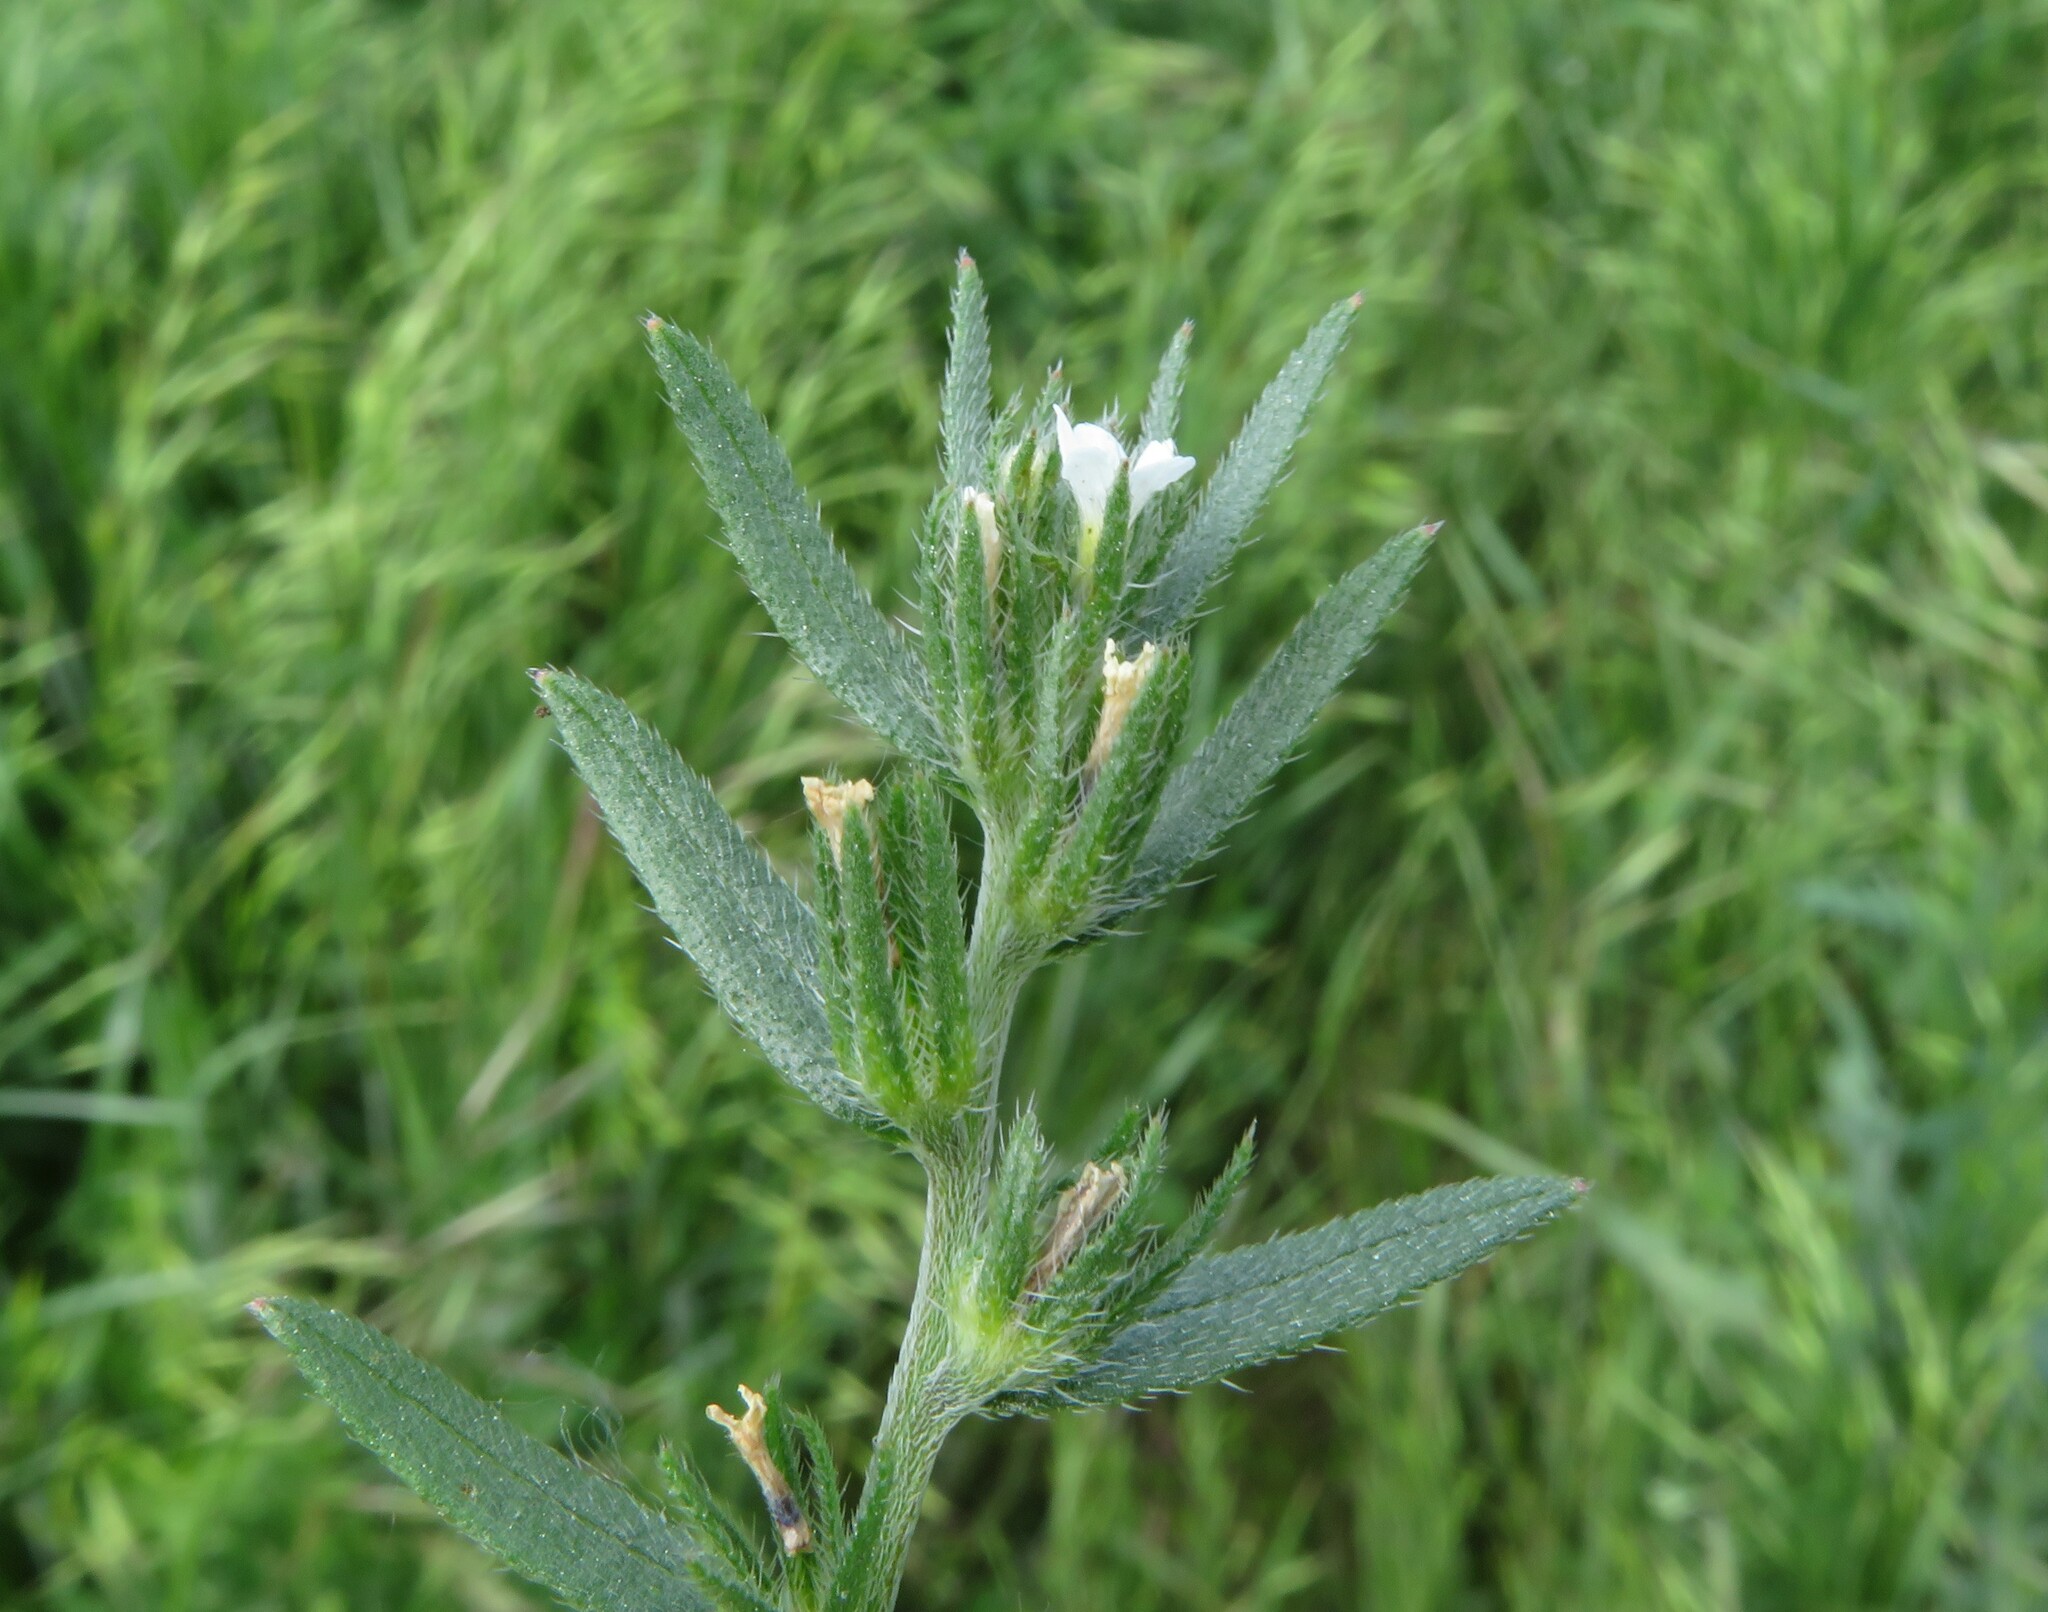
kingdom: Plantae
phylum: Tracheophyta
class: Magnoliopsida
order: Boraginales
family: Boraginaceae
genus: Buglossoides
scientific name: Buglossoides arvensis
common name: Corn gromwell
